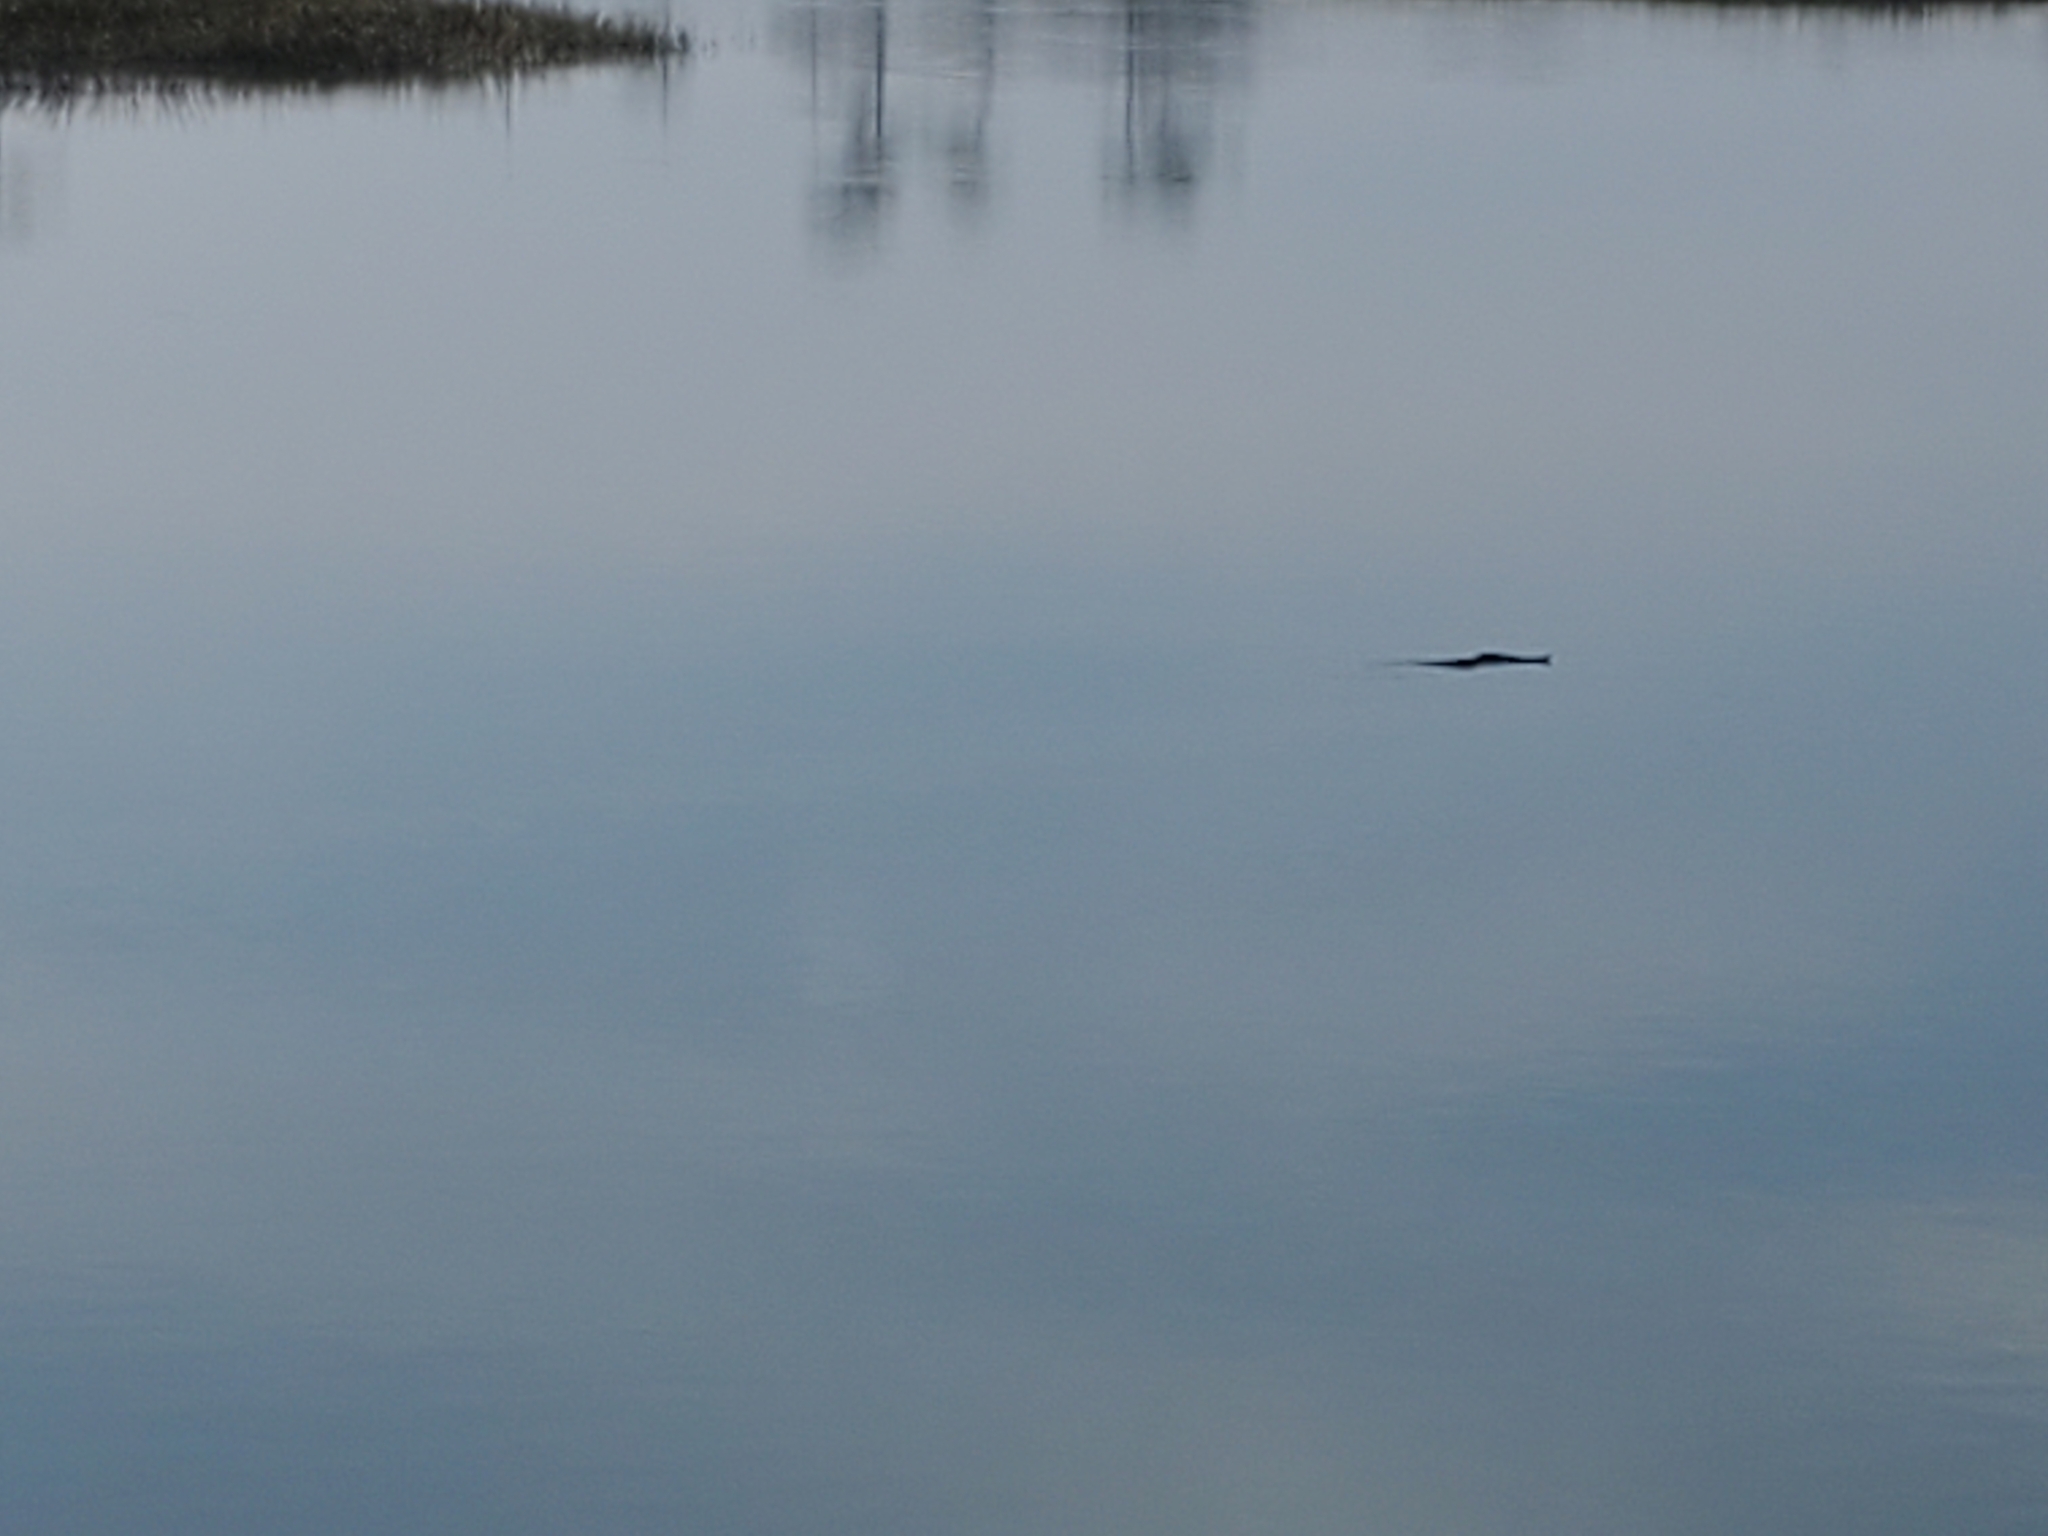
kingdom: Animalia
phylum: Chordata
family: Crotalidae
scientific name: Crotalidae
